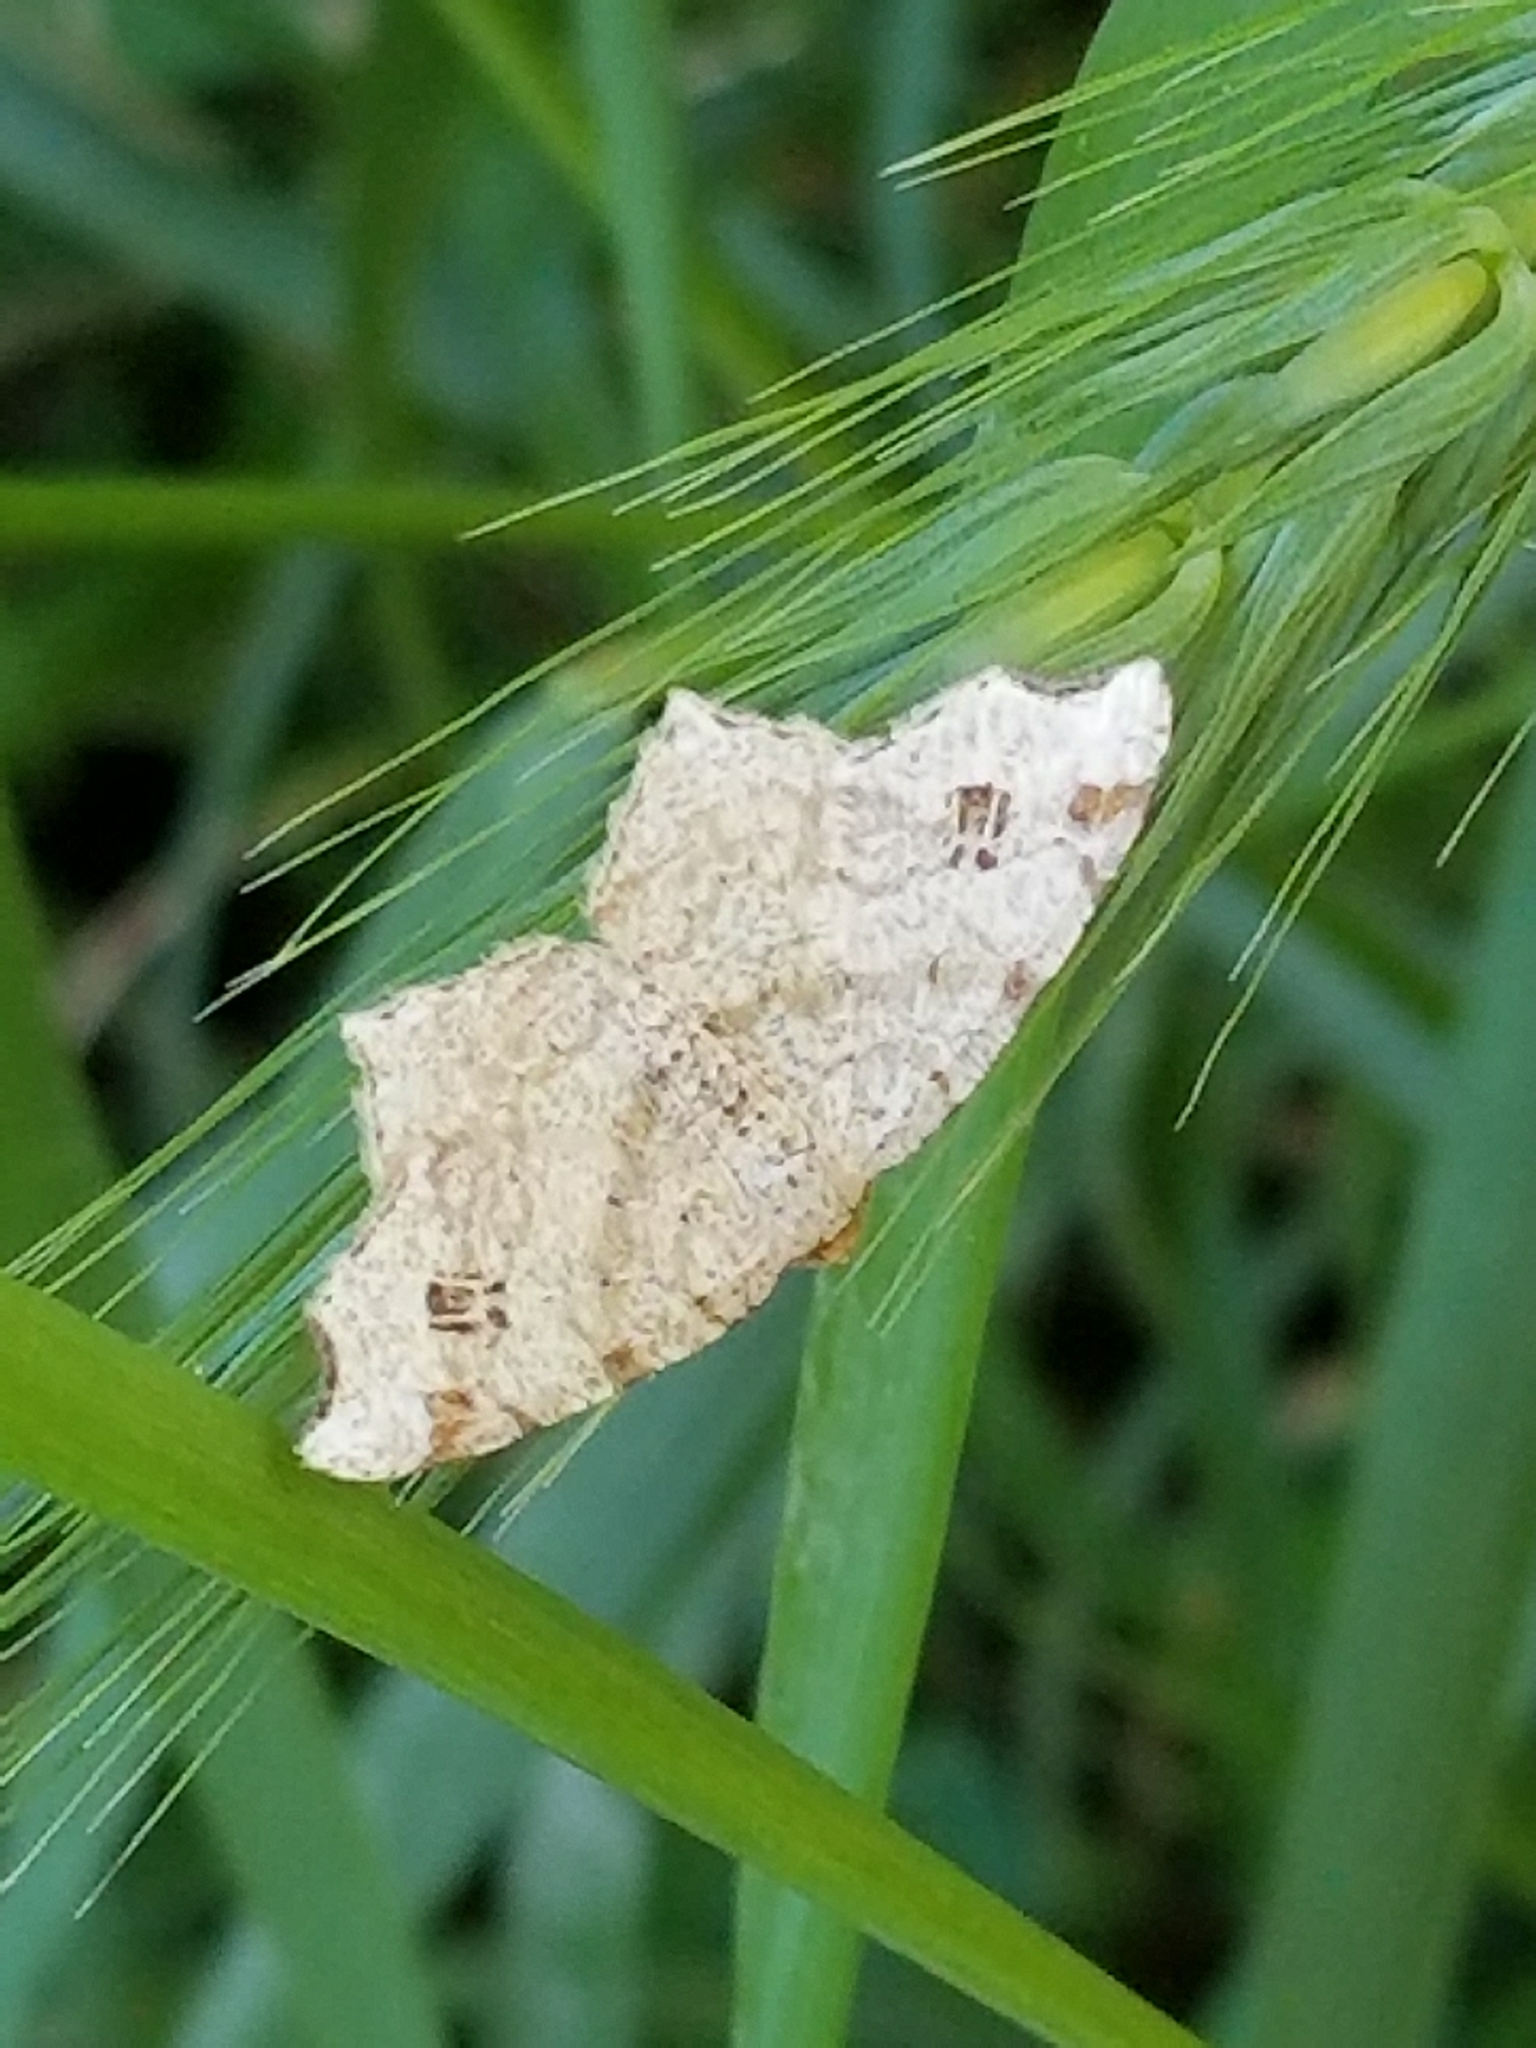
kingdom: Animalia
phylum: Arthropoda
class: Insecta
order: Lepidoptera
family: Geometridae
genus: Macaria
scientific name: Macaria aemulataria
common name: Common angle
